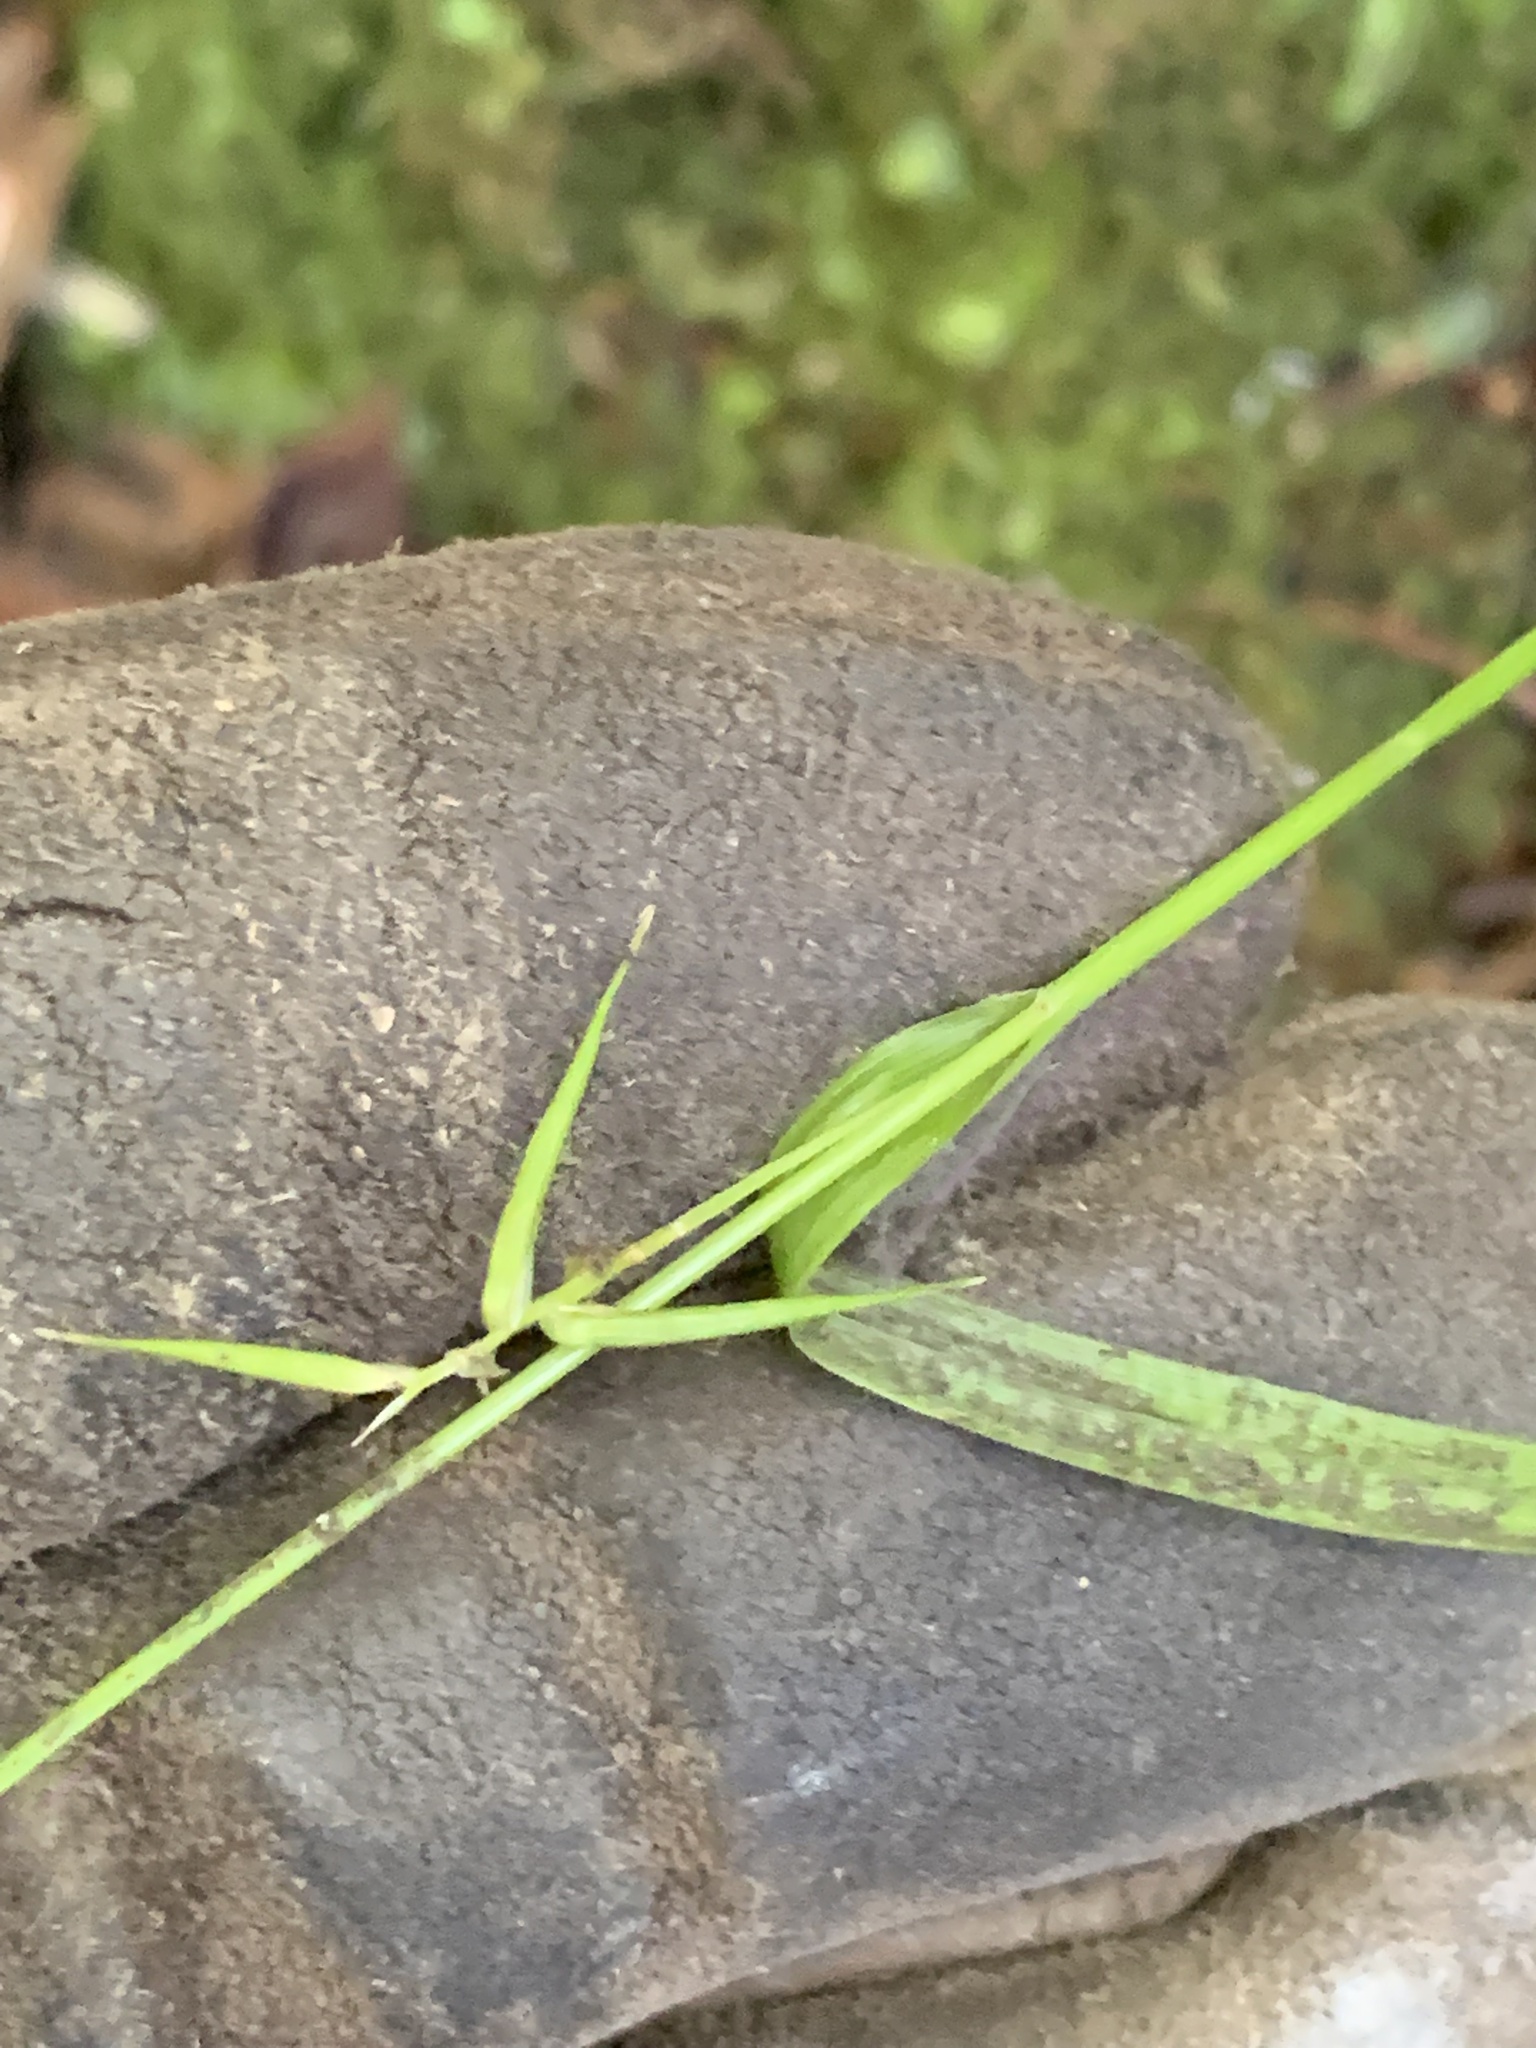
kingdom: Plantae
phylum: Tracheophyta
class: Liliopsida
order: Poales
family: Cyperaceae
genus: Carex
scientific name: Carex collinsii
